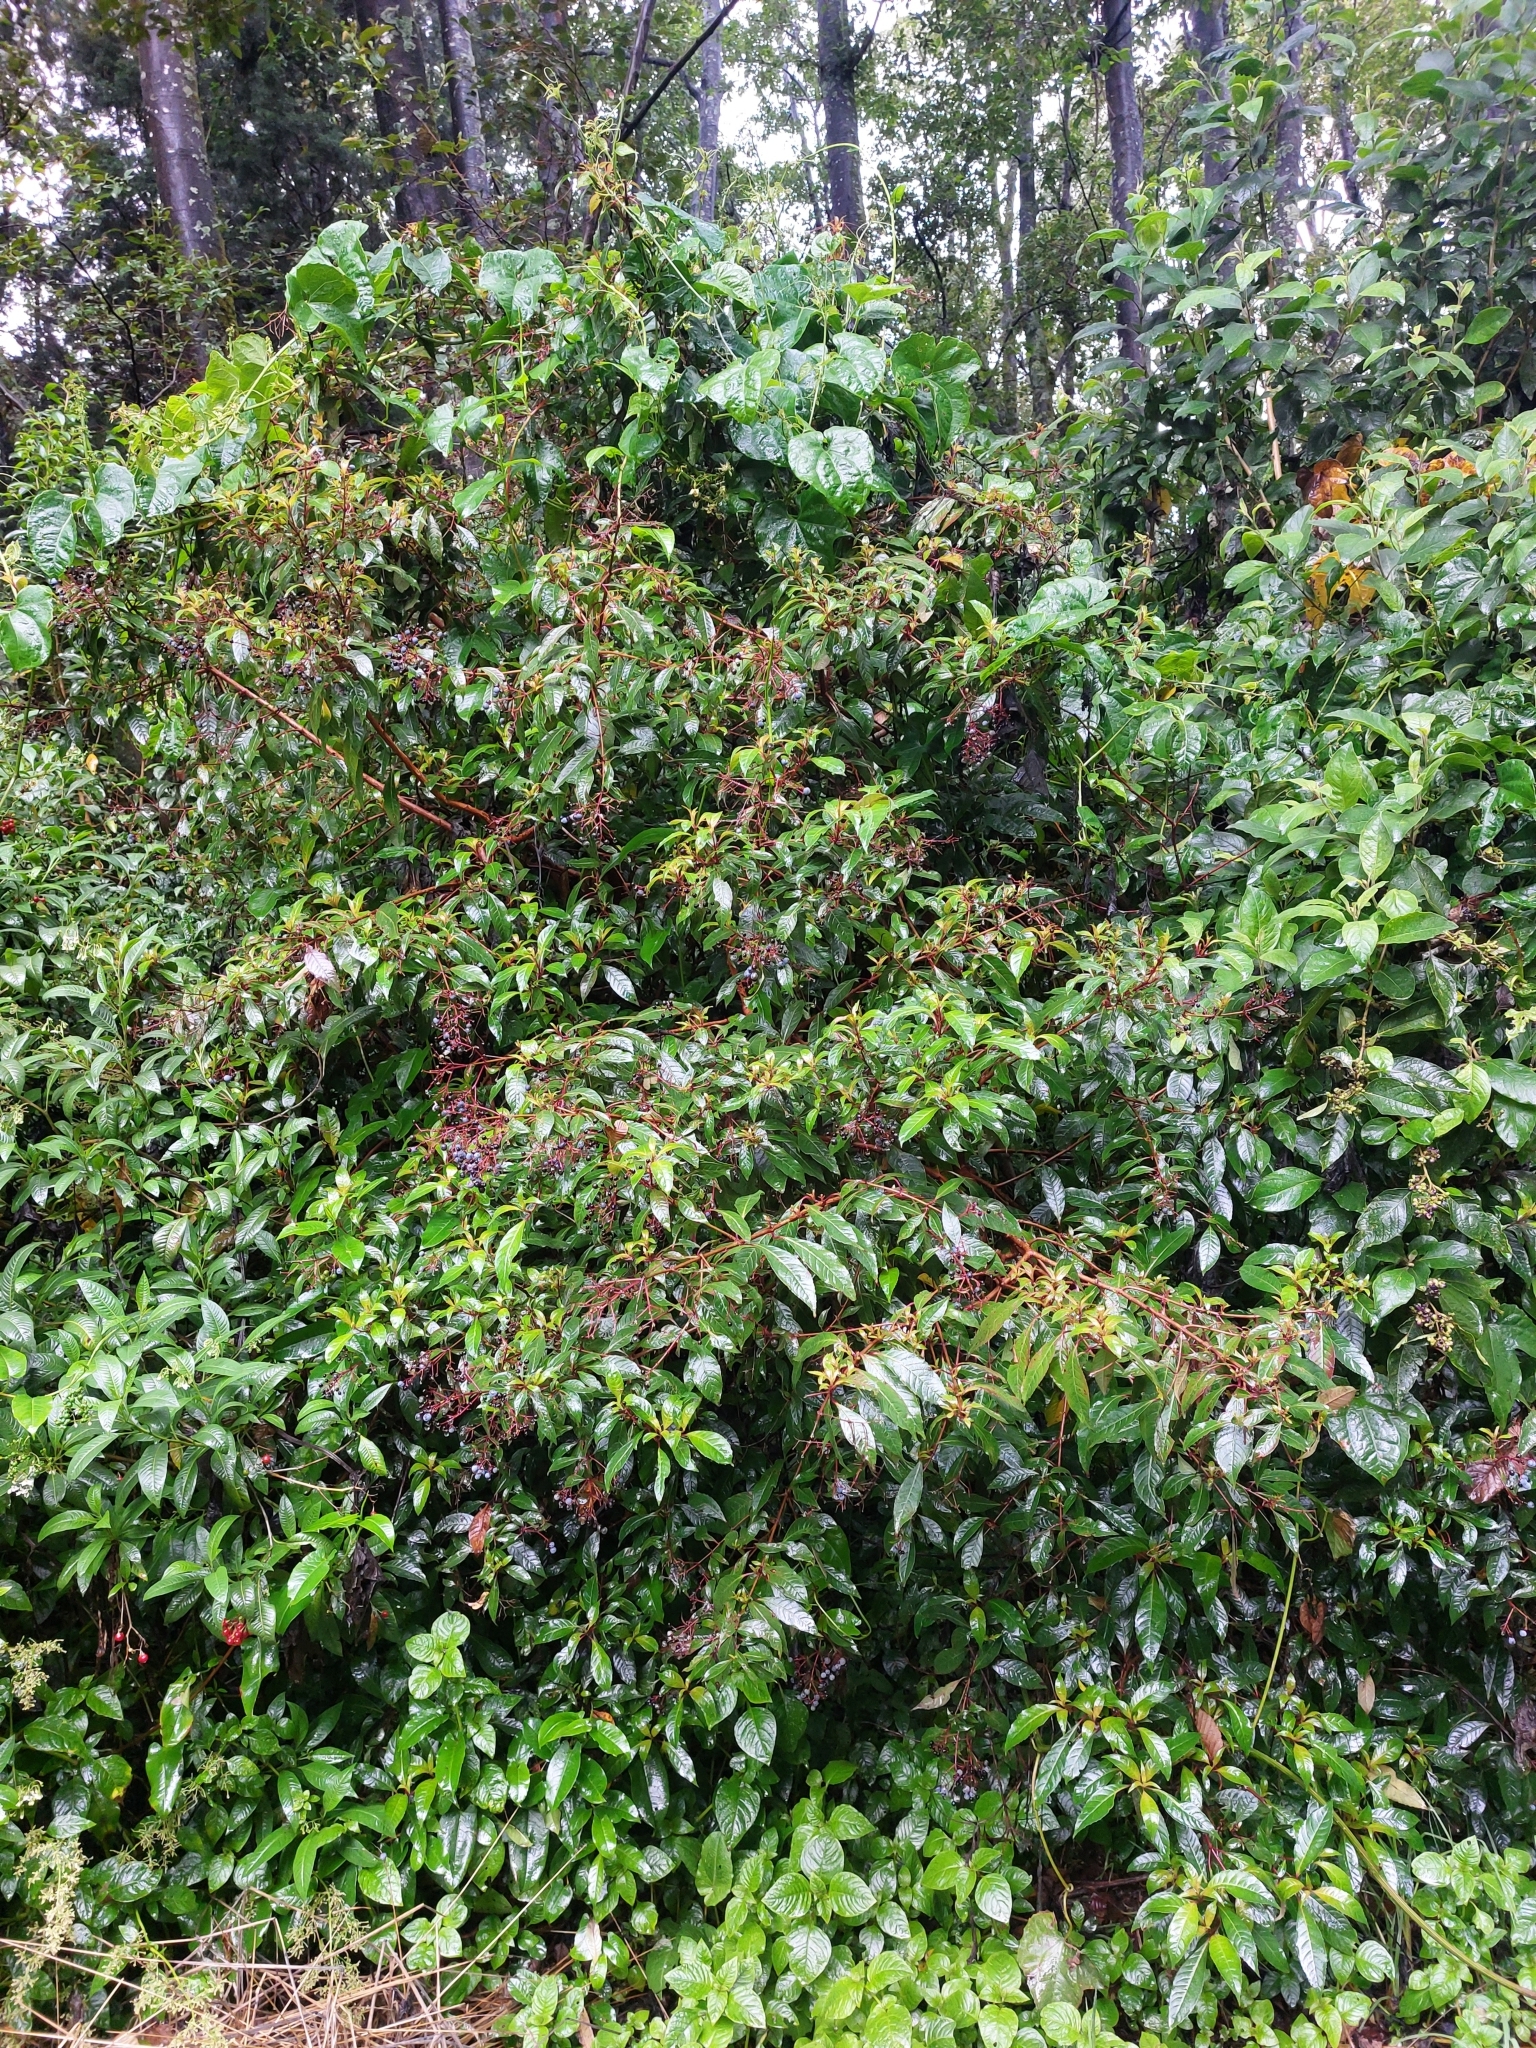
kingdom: Plantae
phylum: Tracheophyta
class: Magnoliopsida
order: Myrtales
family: Onagraceae
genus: Fuchsia
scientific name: Fuchsia paniculata
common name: Shrubby fuchsia
